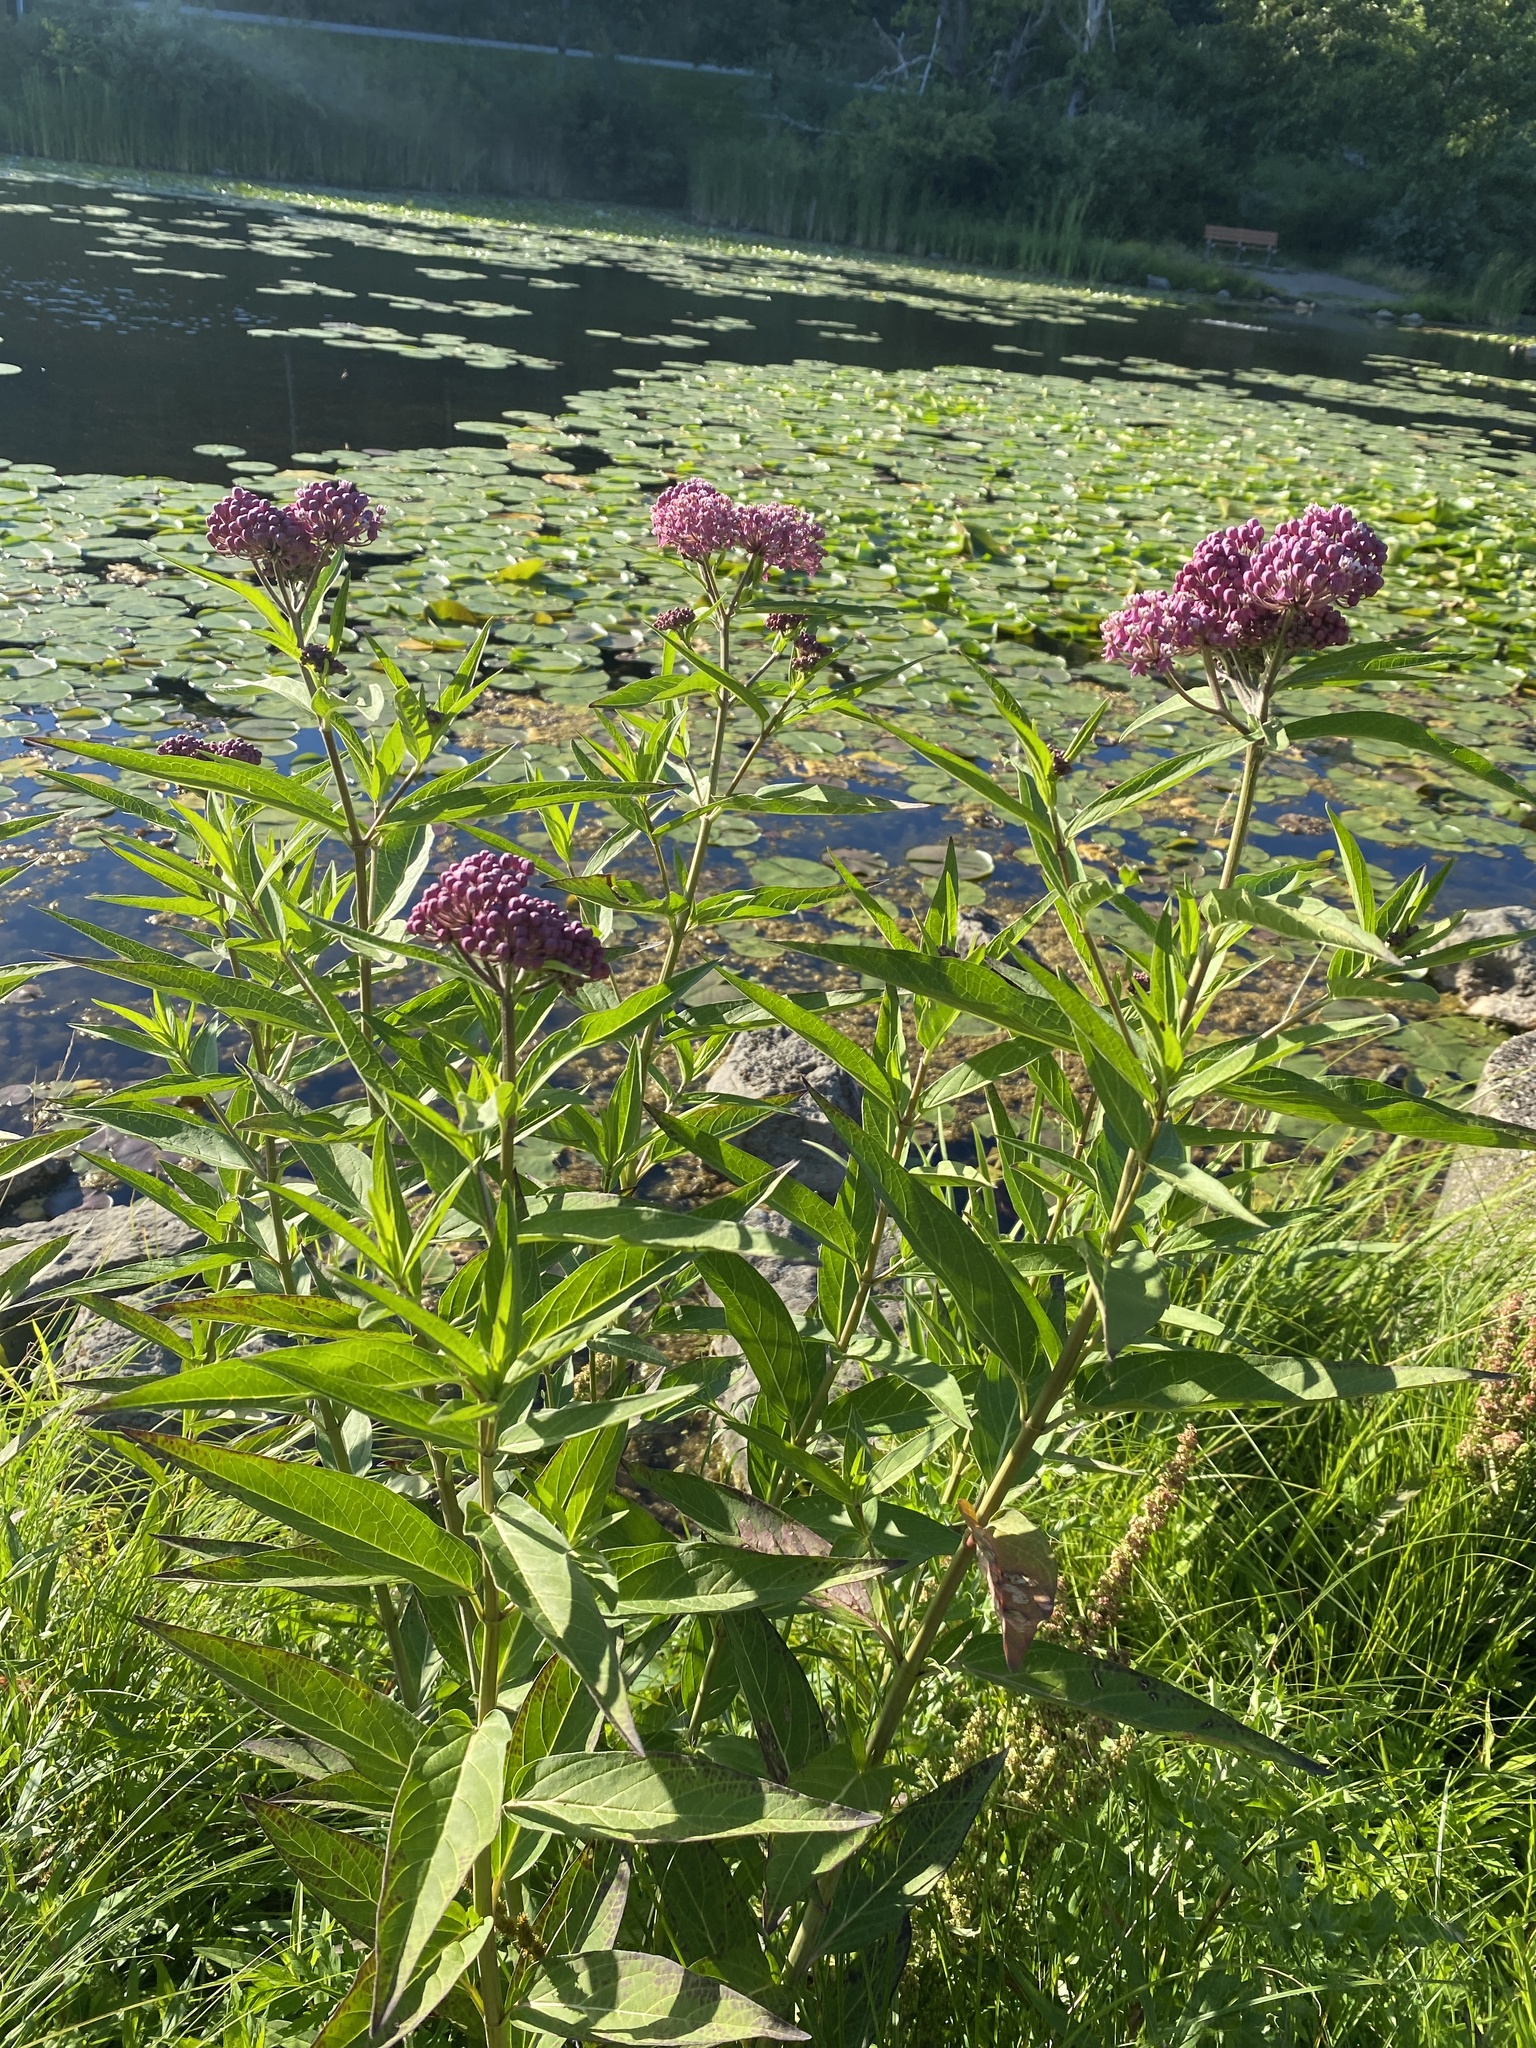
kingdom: Plantae
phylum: Tracheophyta
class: Magnoliopsida
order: Gentianales
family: Apocynaceae
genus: Asclepias
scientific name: Asclepias incarnata
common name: Swamp milkweed
